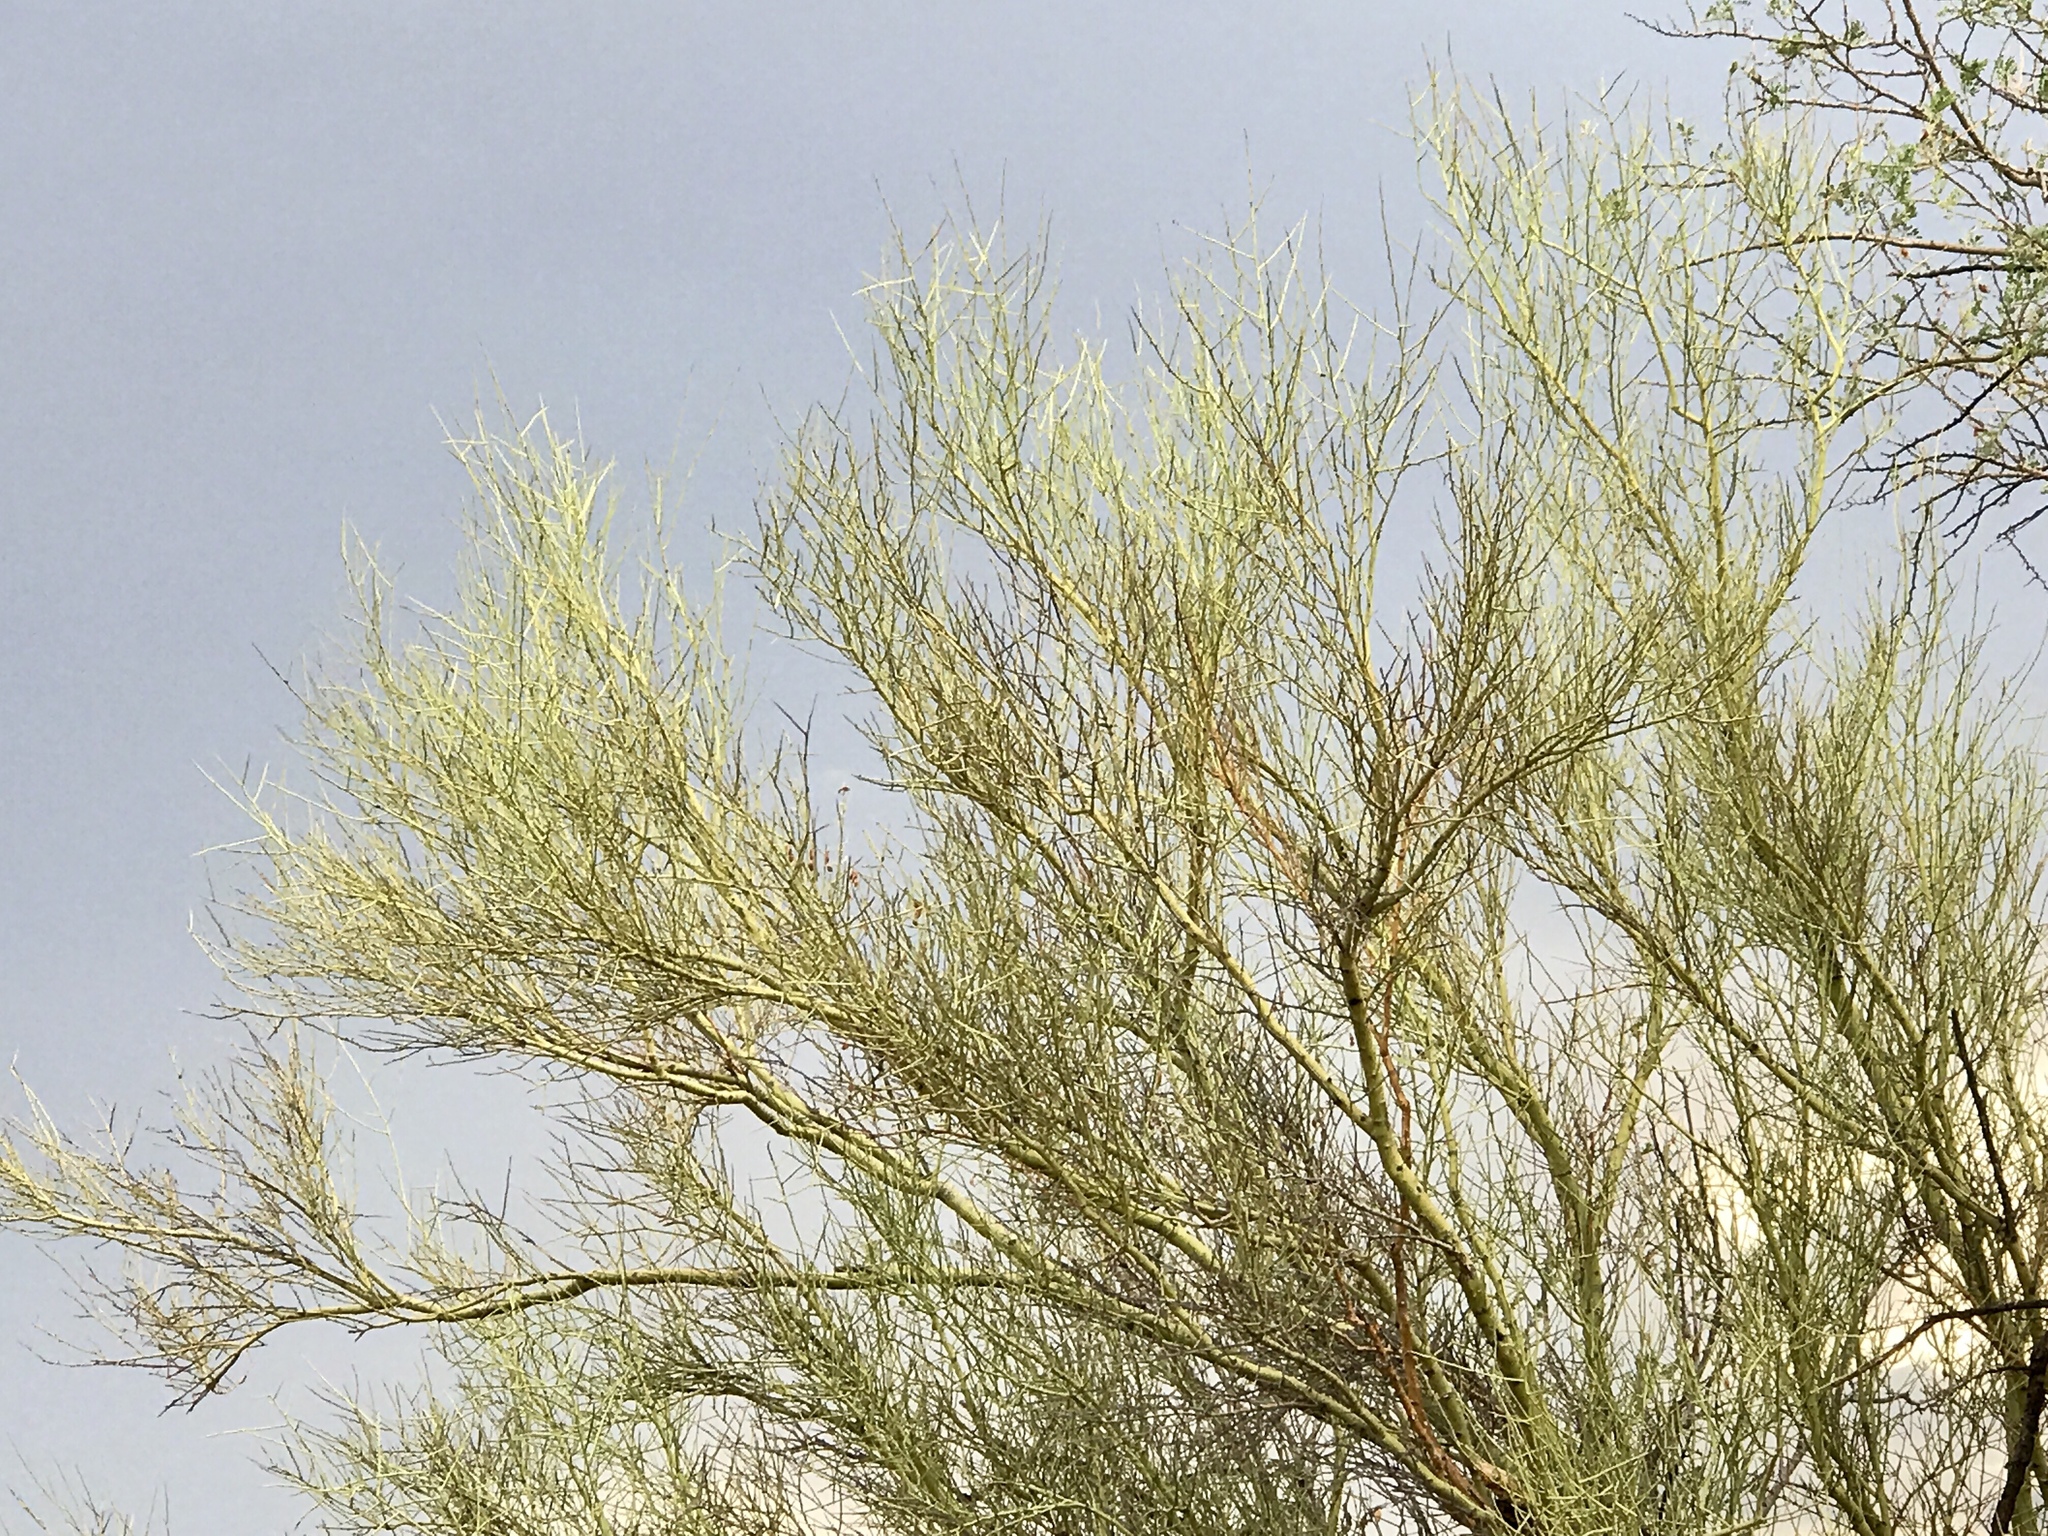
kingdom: Plantae
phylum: Tracheophyta
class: Magnoliopsida
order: Fabales
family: Fabaceae
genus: Parkinsonia
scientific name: Parkinsonia microphylla
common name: Yellow paloverde
